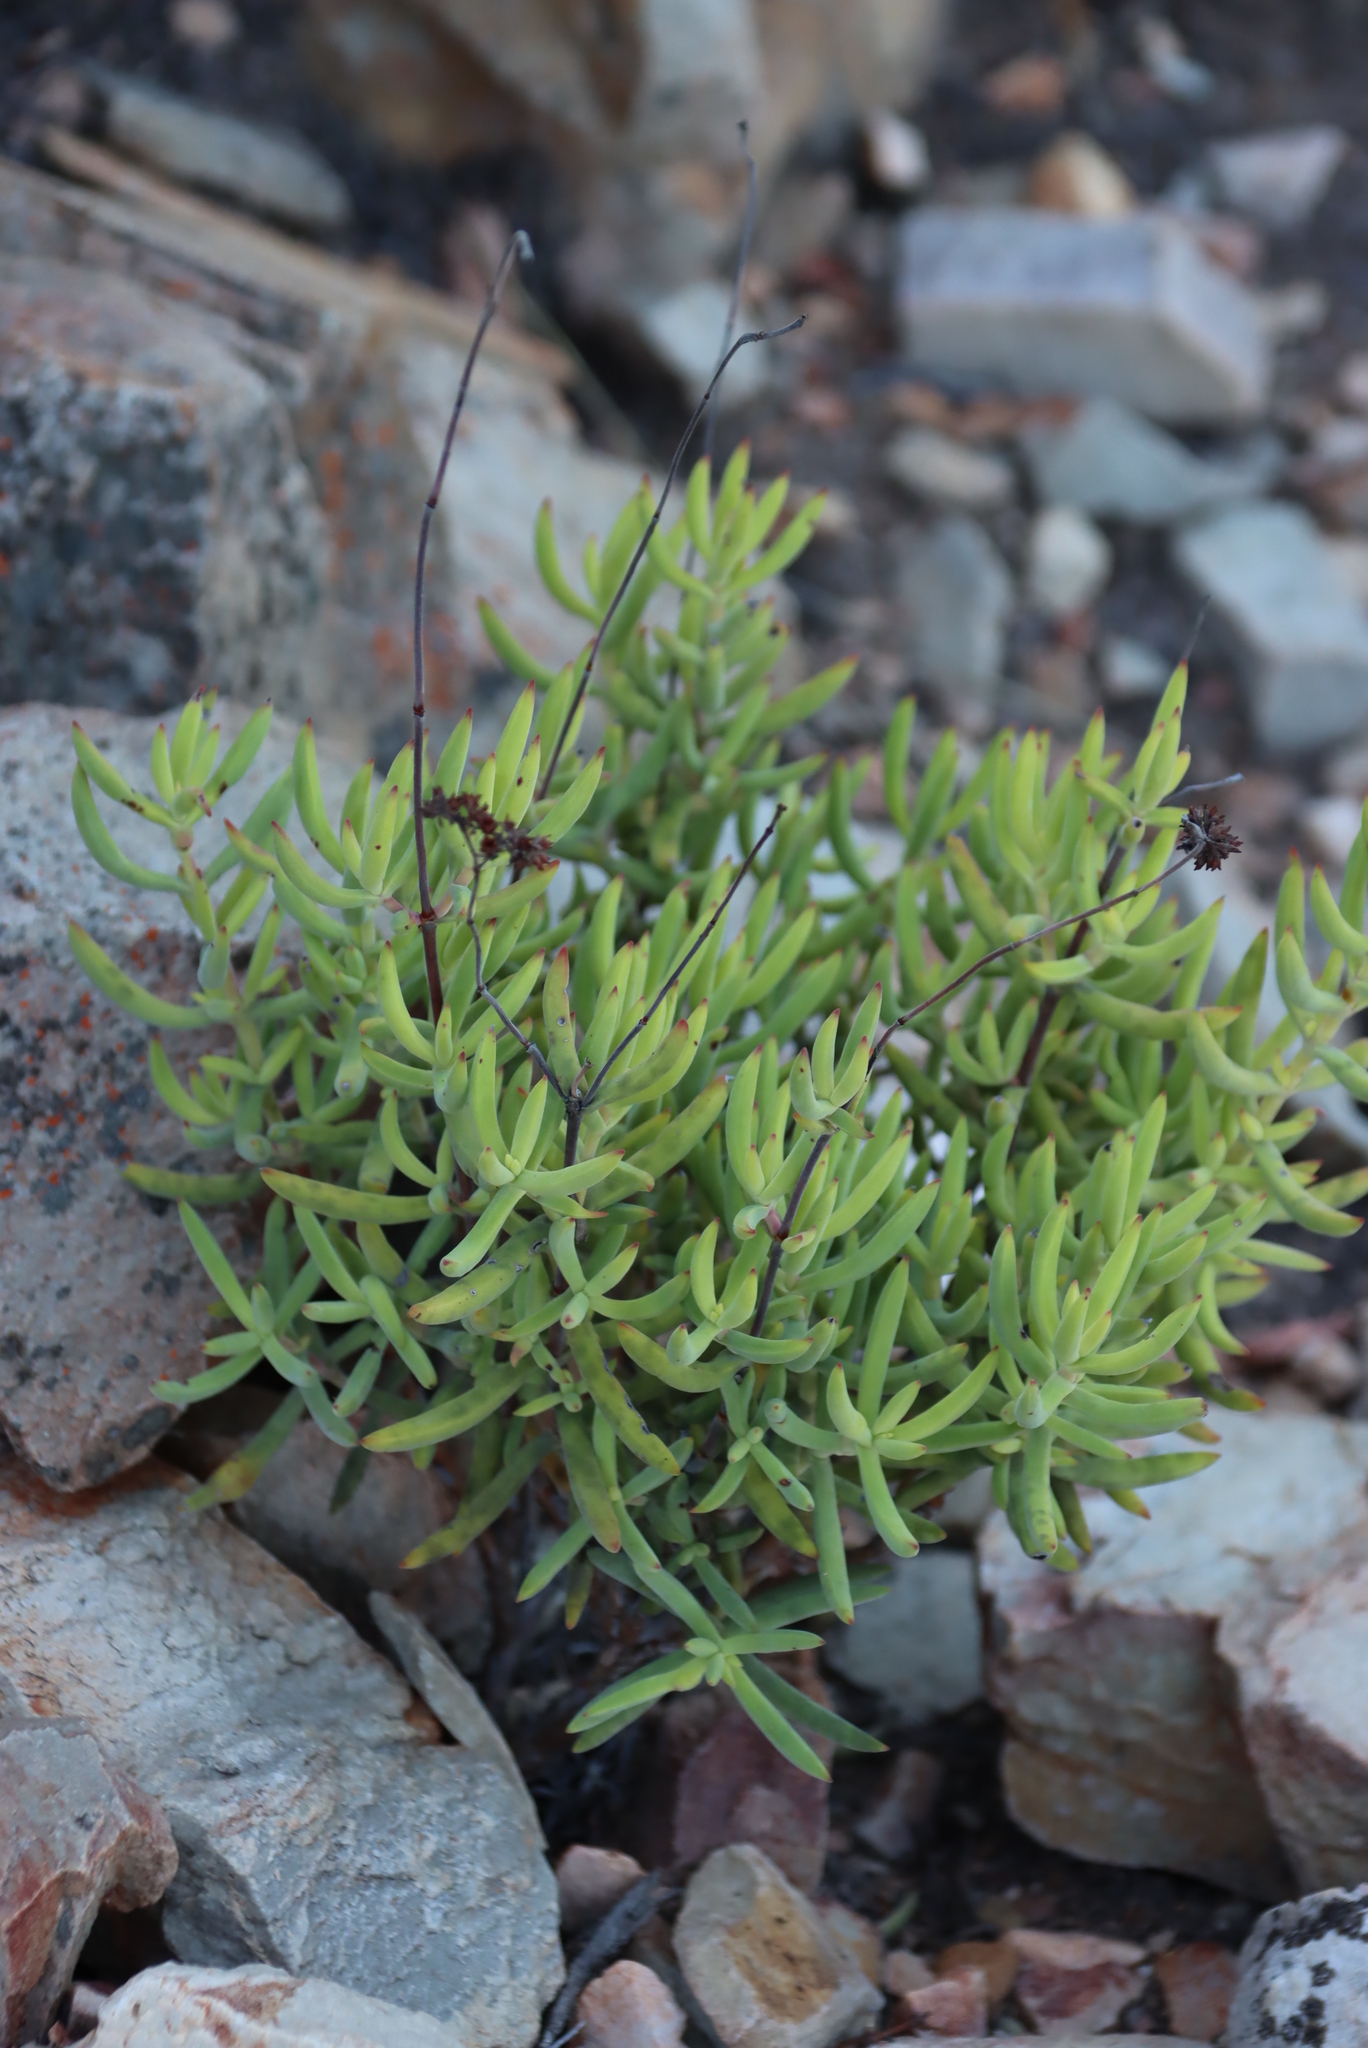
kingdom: Plantae
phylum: Tracheophyta
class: Magnoliopsida
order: Saxifragales
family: Crassulaceae
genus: Crassula
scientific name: Crassula mollis
